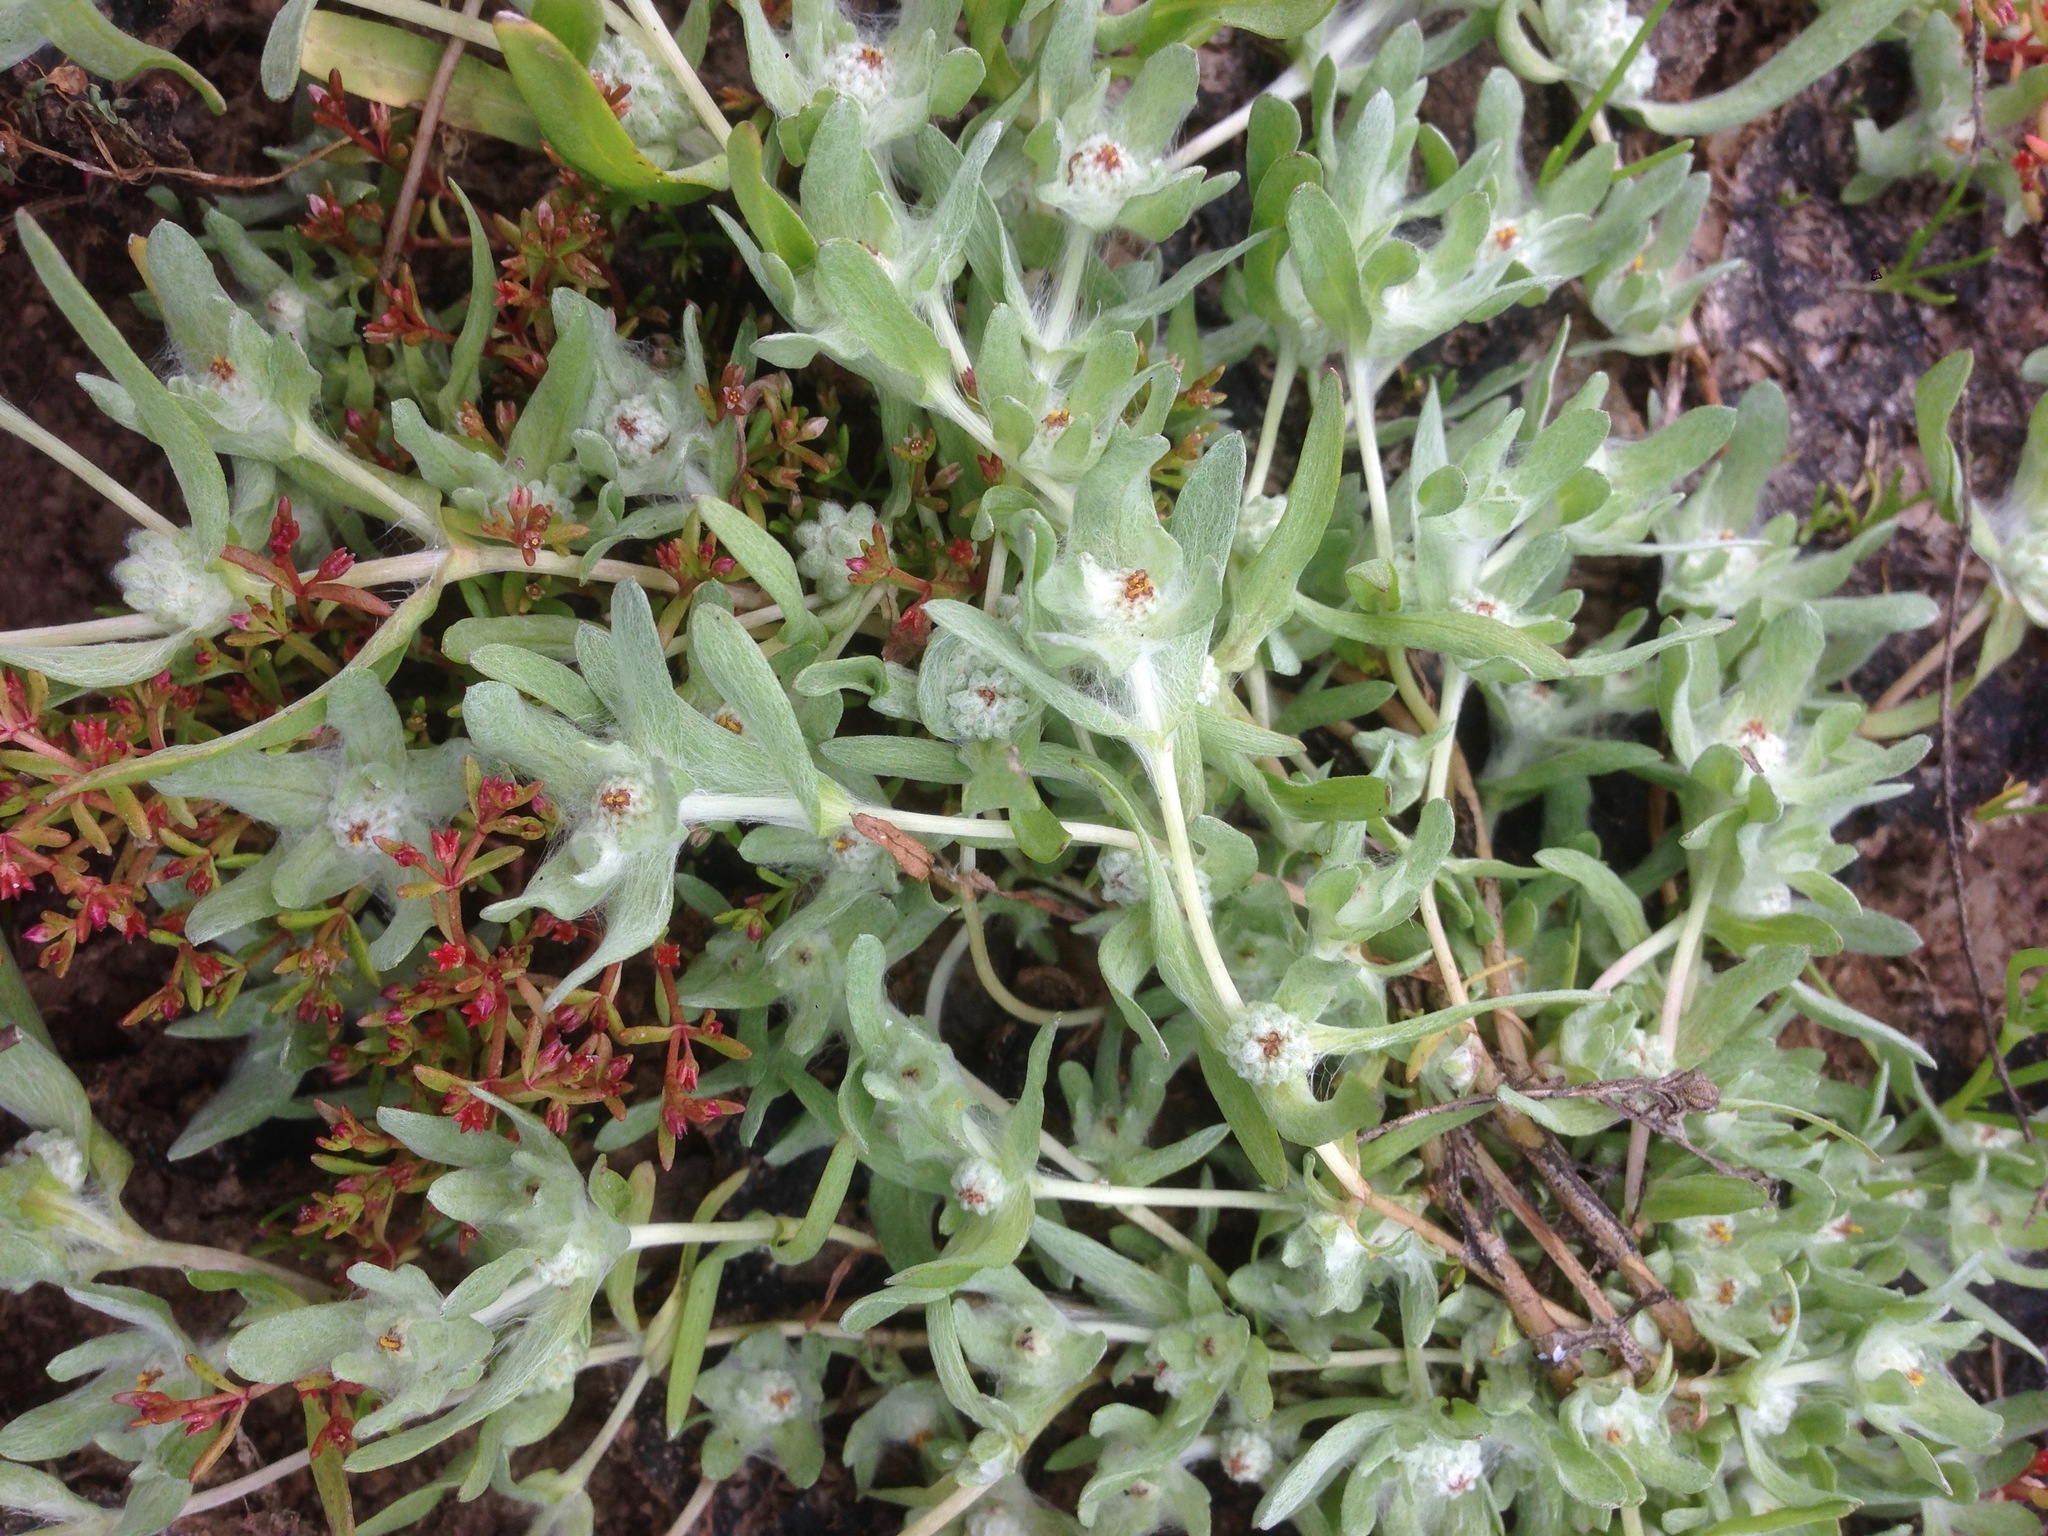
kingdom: Plantae
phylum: Tracheophyta
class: Magnoliopsida
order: Asterales
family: Asteraceae
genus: Psilocarphus
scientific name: Psilocarphus brevissimus
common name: Dwarf woollyheads
